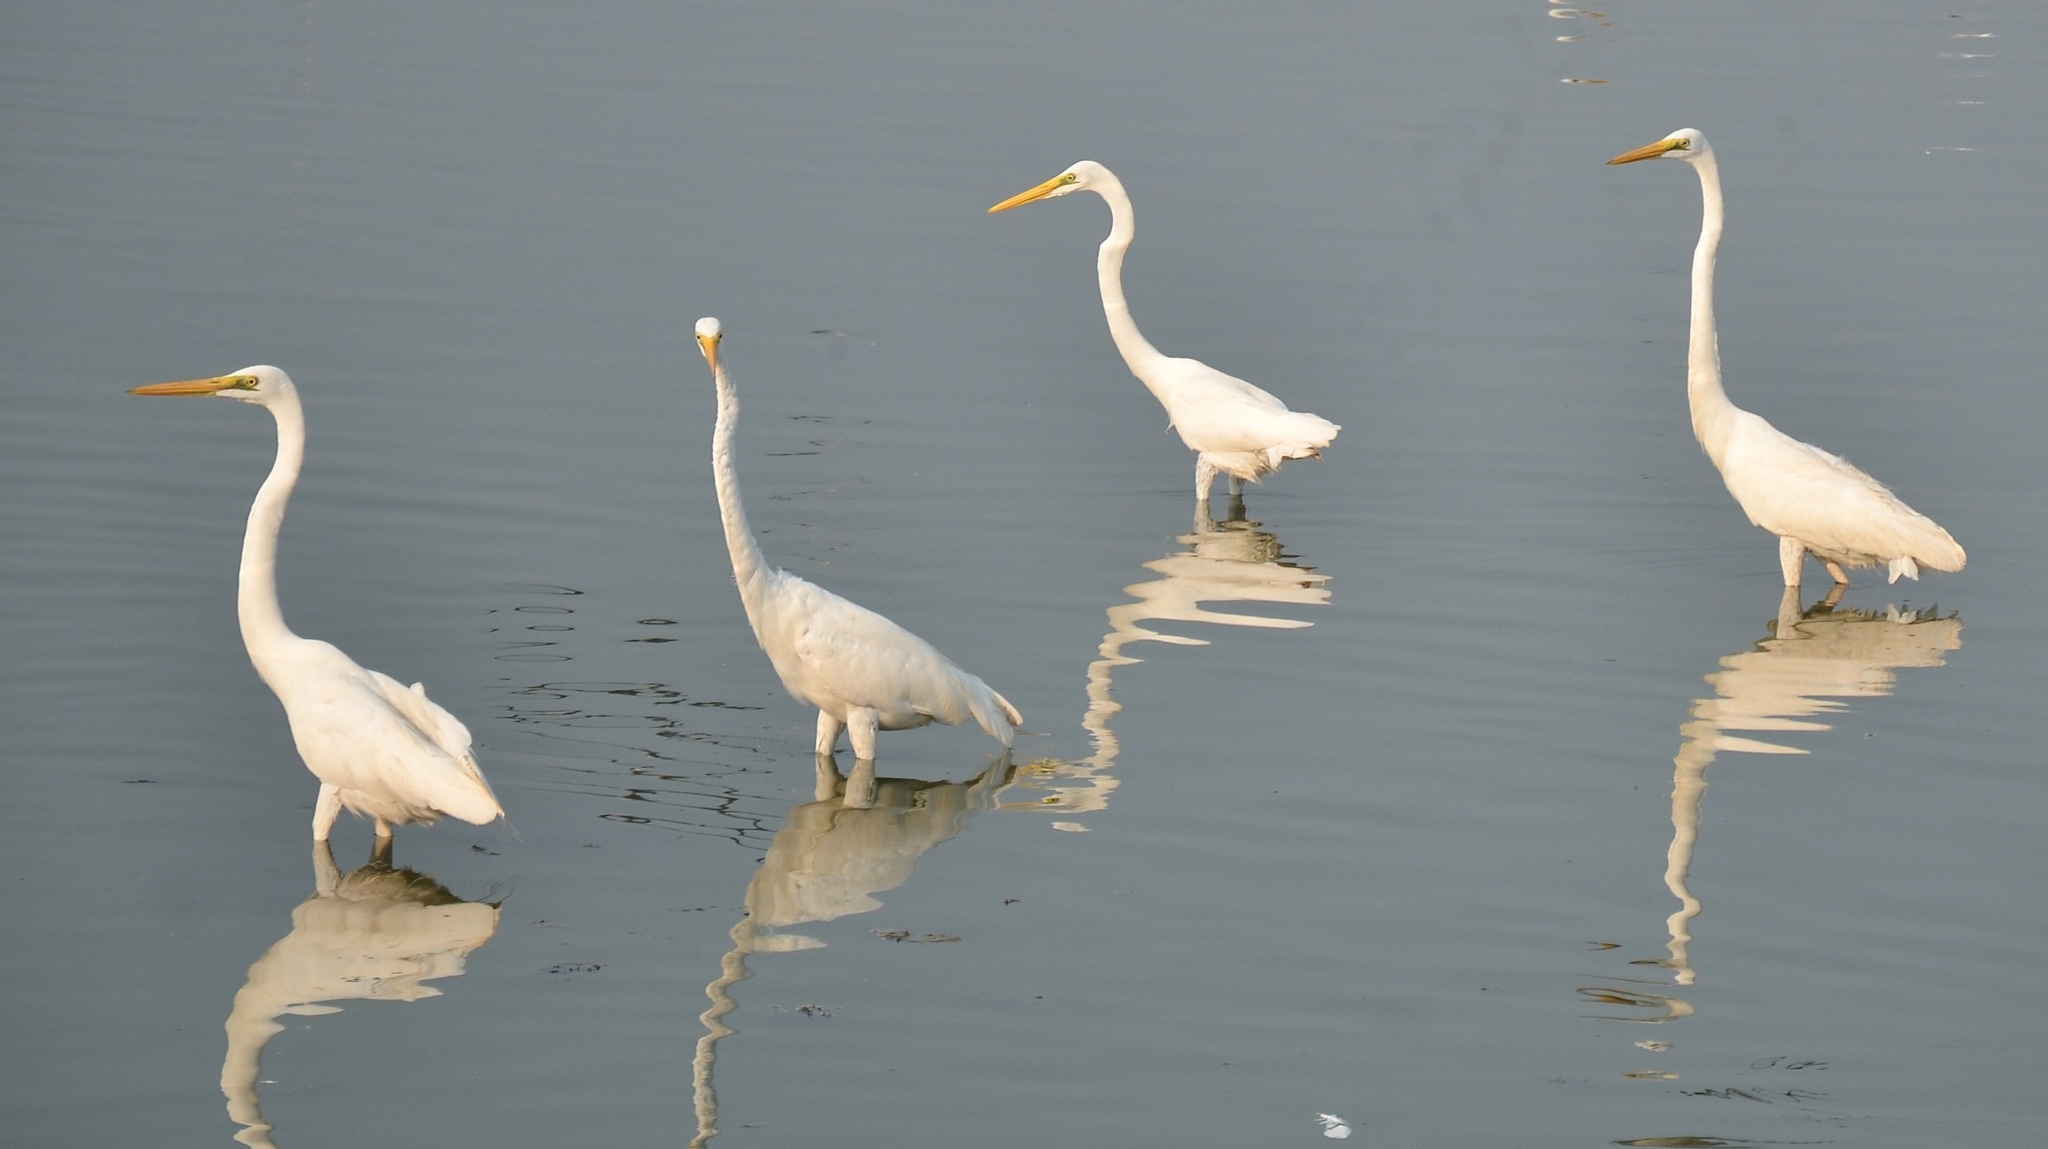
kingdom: Animalia
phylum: Chordata
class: Aves
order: Pelecaniformes
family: Ardeidae
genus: Ardea
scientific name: Ardea alba
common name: Great egret
